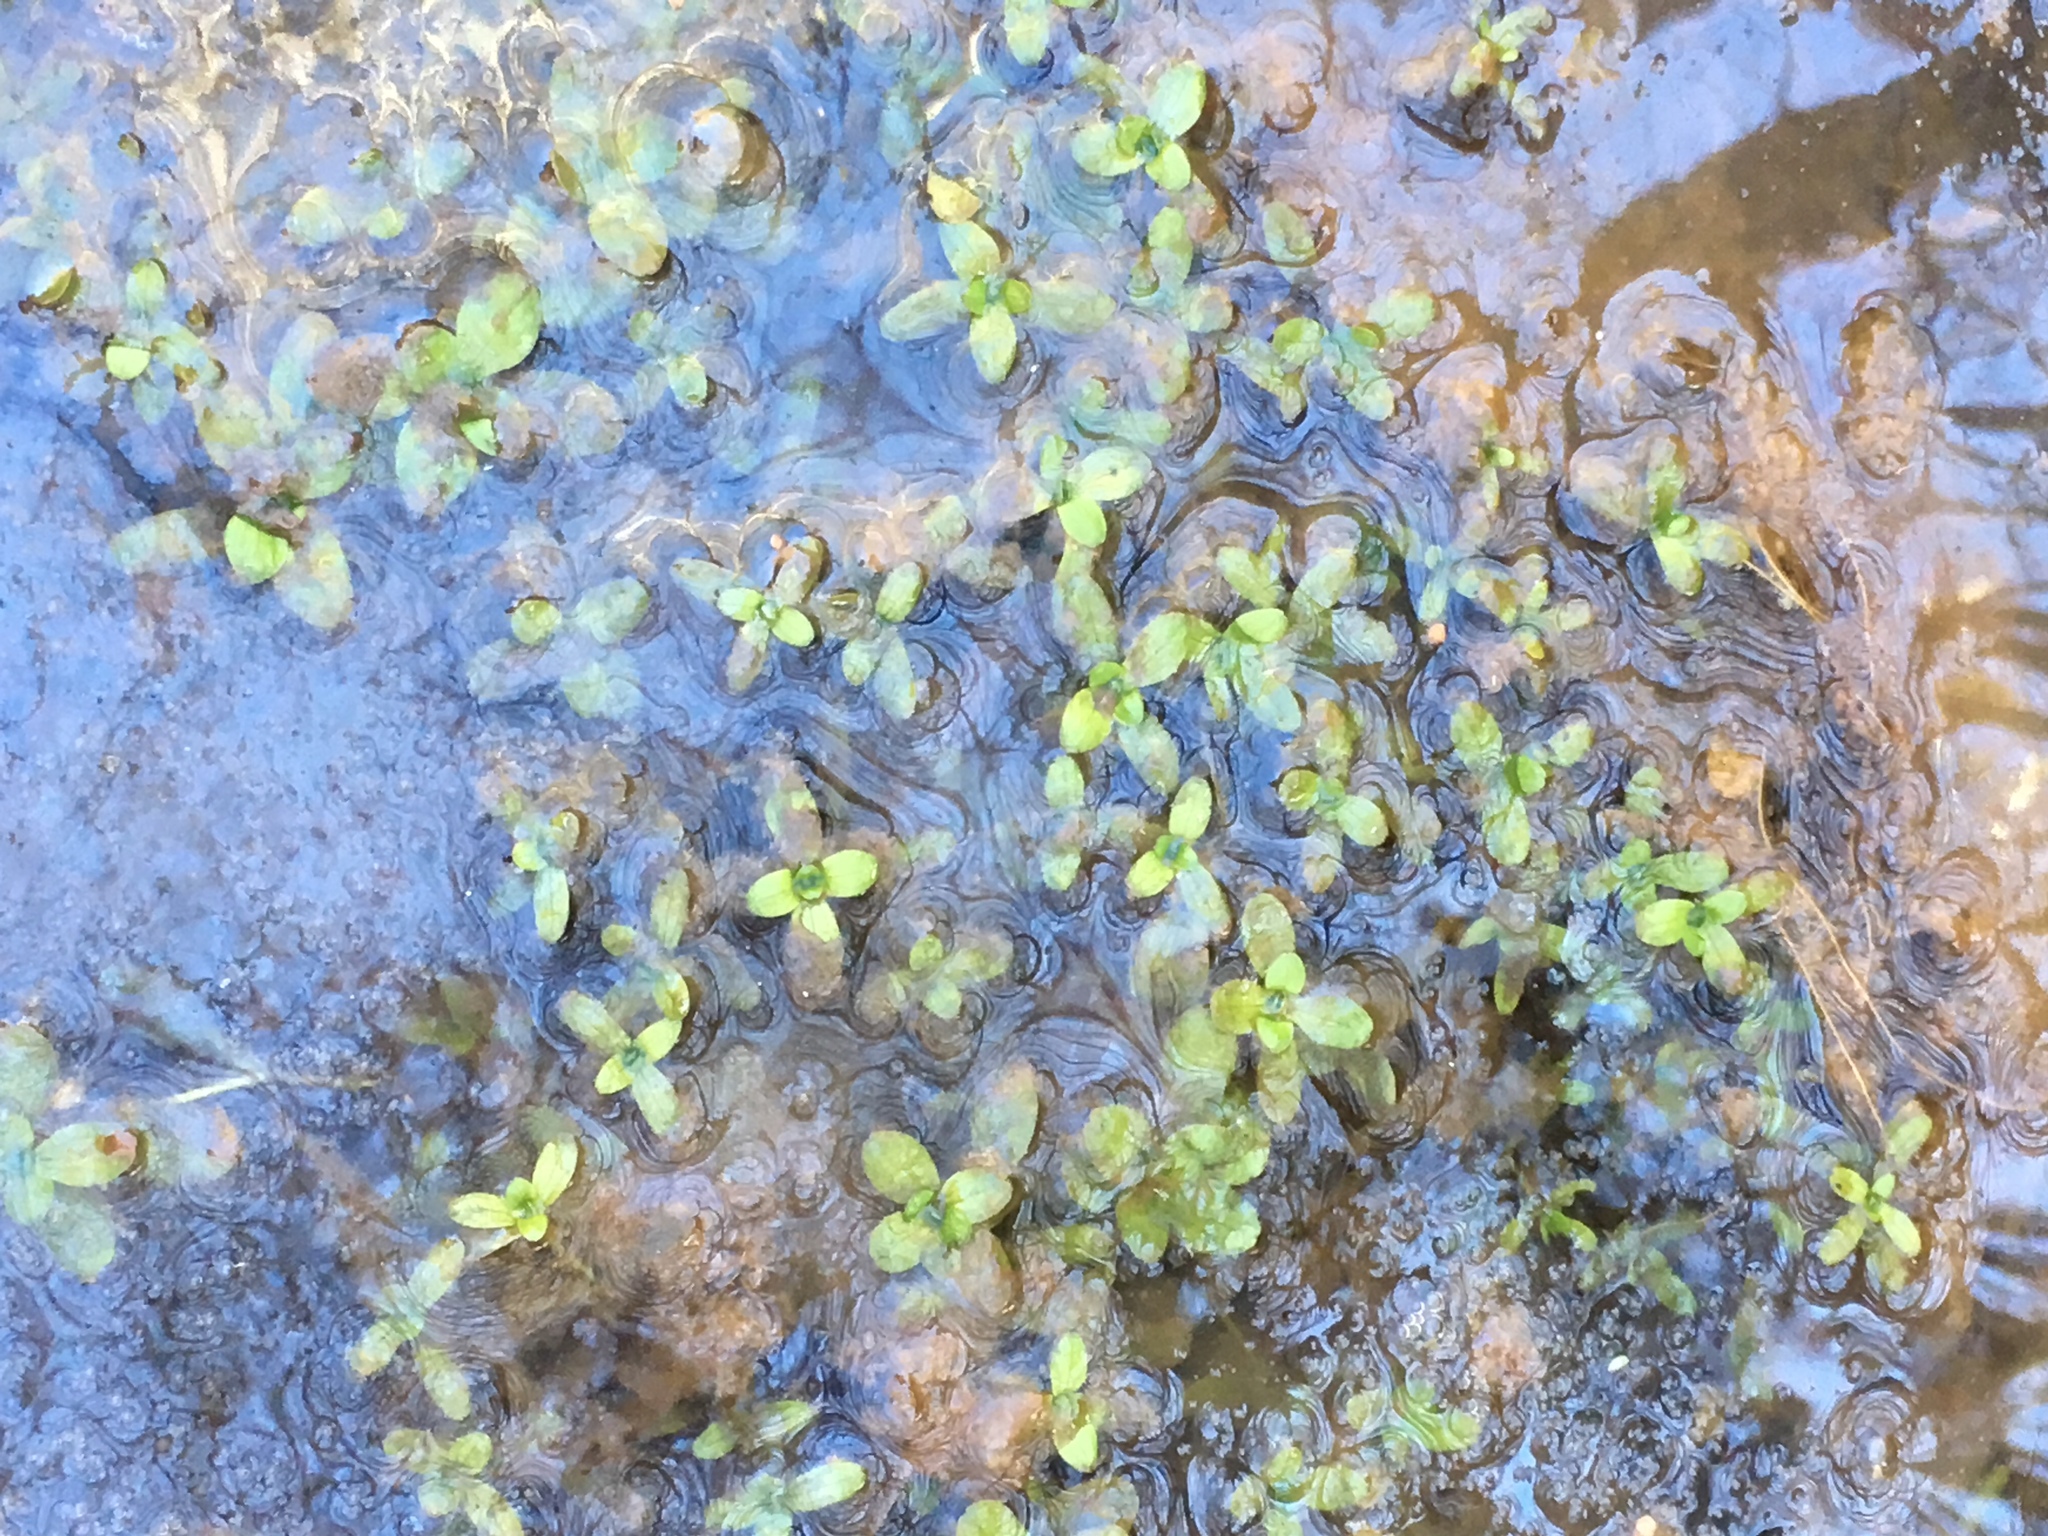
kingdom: Plantae
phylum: Tracheophyta
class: Magnoliopsida
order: Lamiales
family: Plantaginaceae
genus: Callitriche
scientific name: Callitriche stagnalis
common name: Common water-starwort
